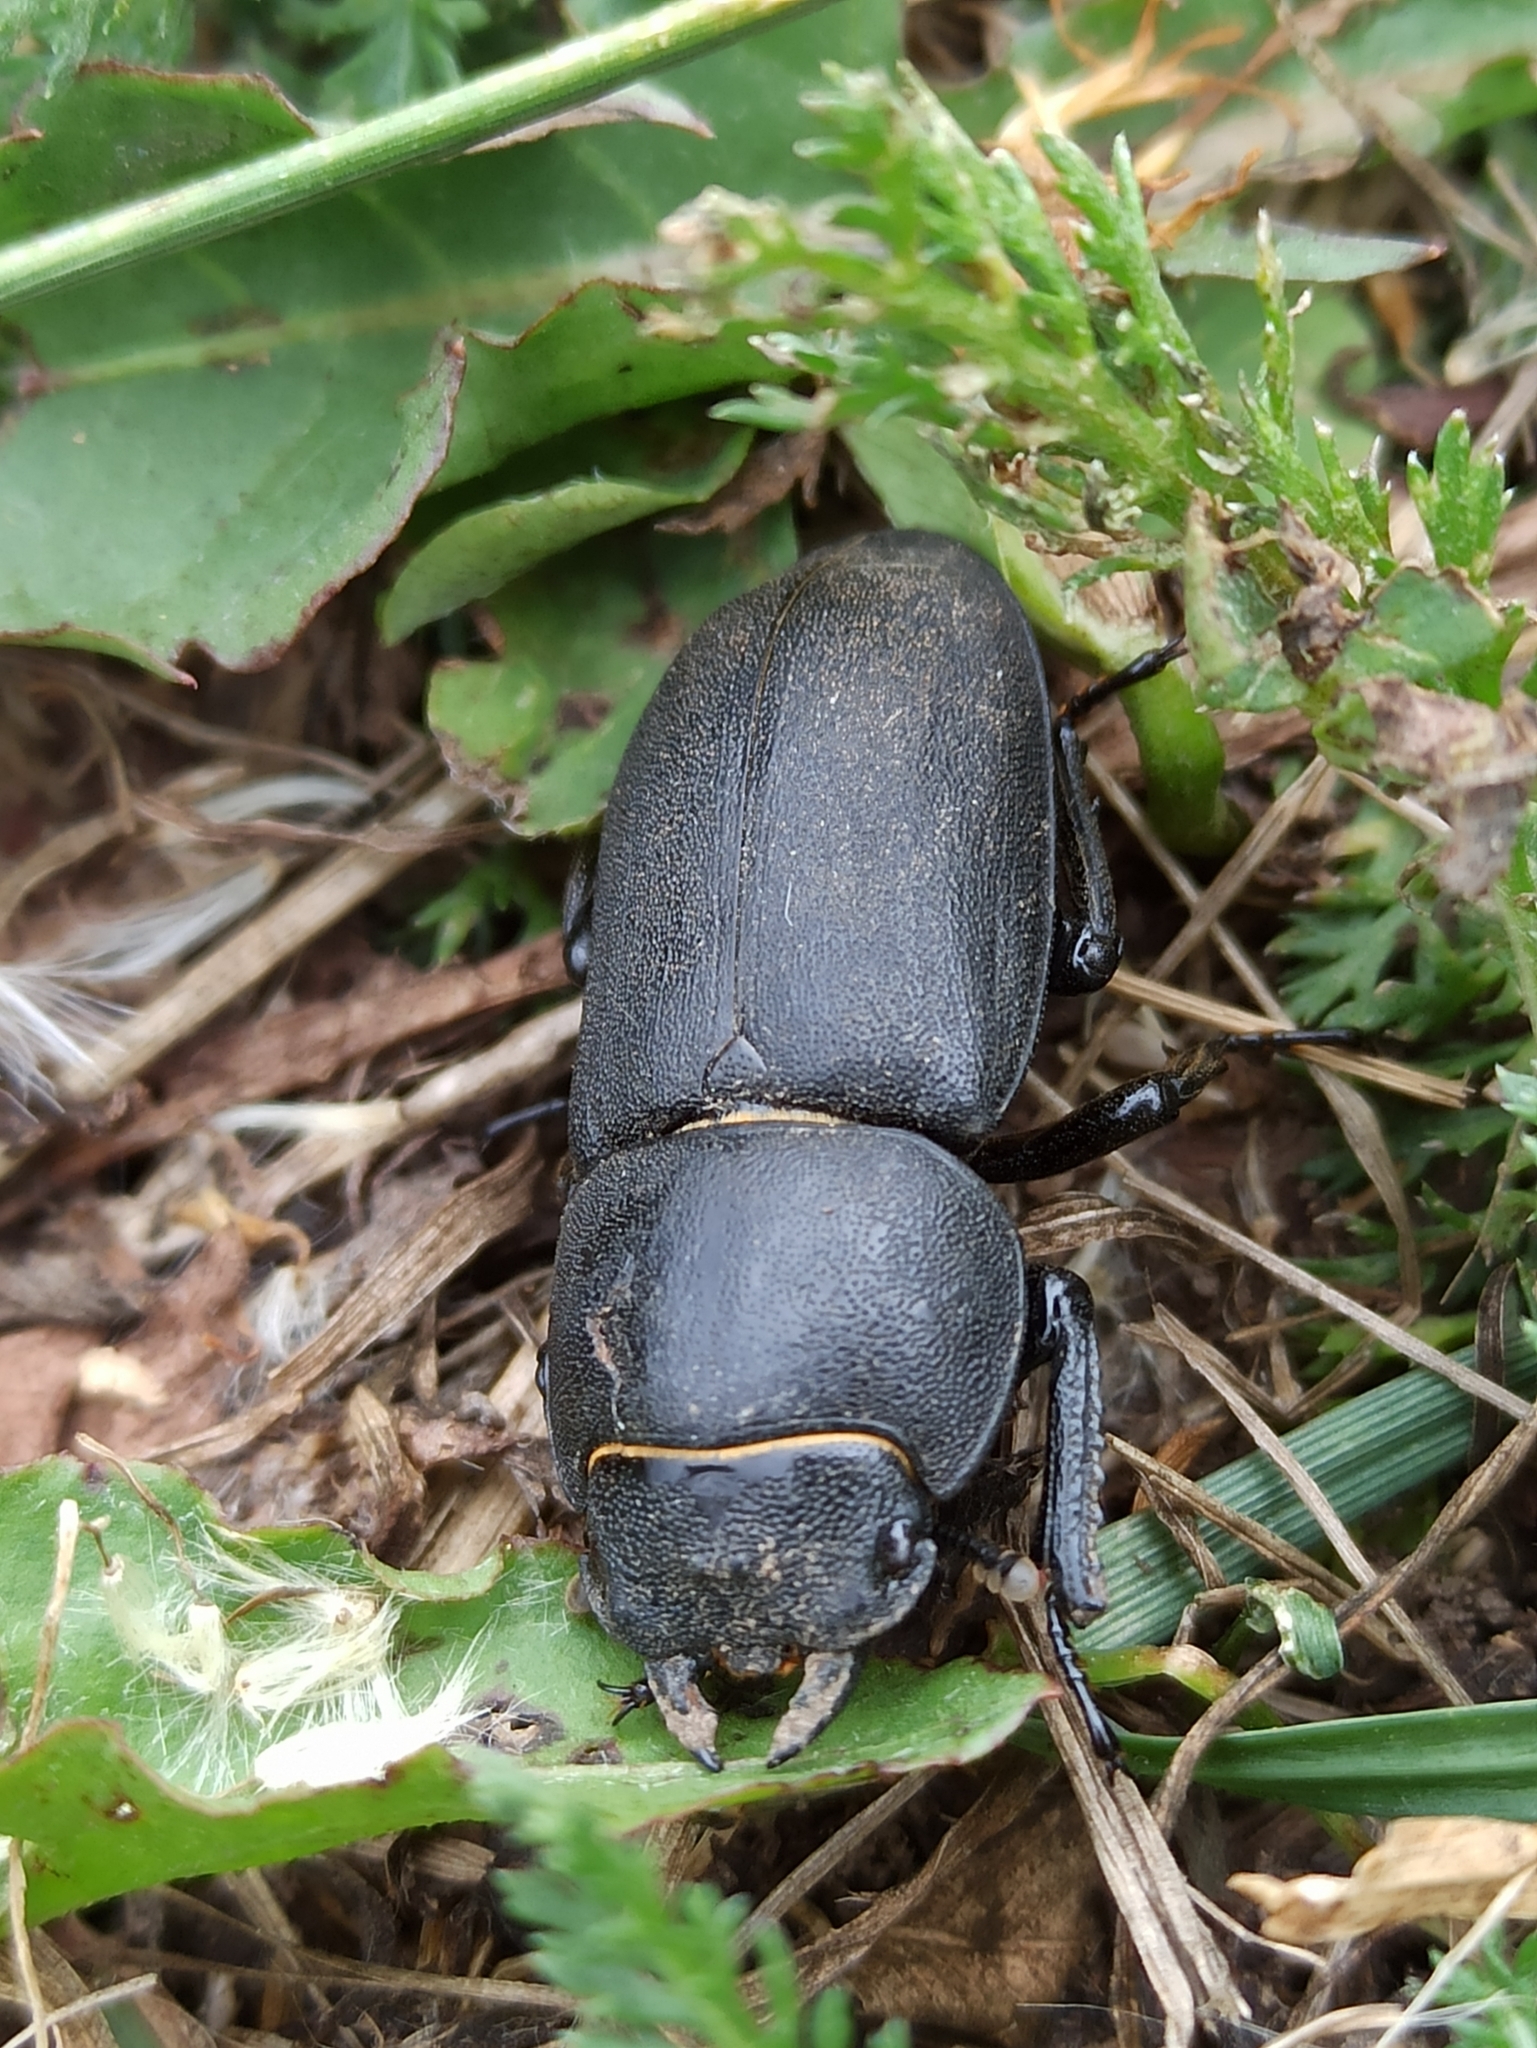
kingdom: Animalia
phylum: Arthropoda
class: Insecta
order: Coleoptera
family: Lucanidae
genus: Dorcus
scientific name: Dorcus parallelipipedus
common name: Lesser stag beetle
